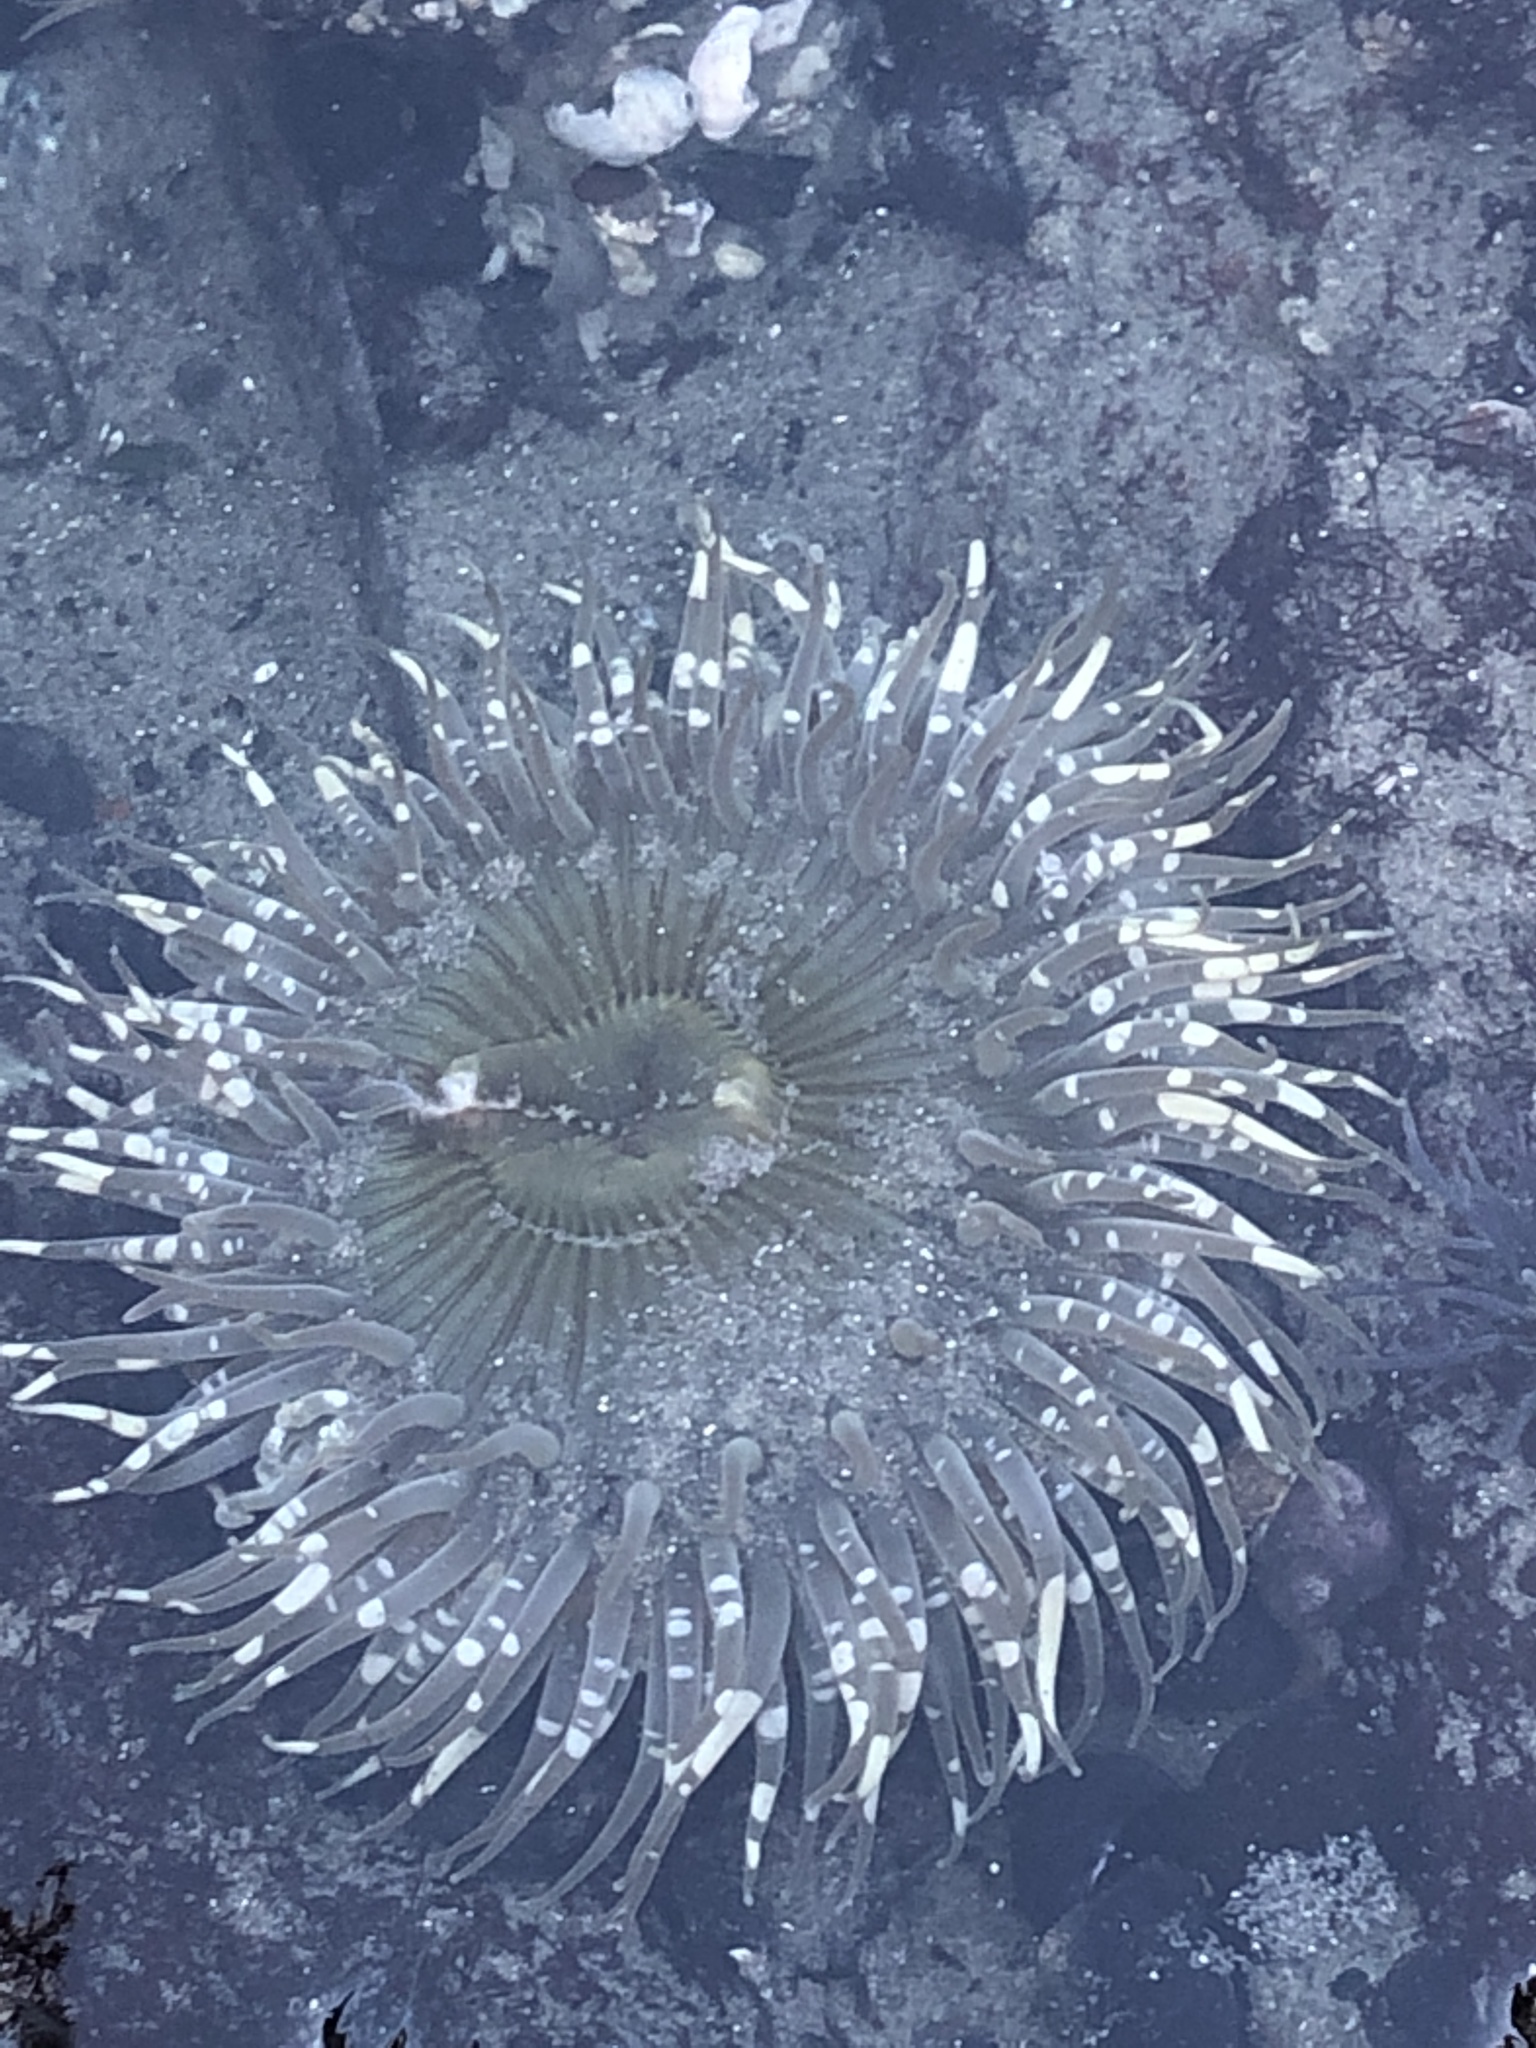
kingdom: Animalia
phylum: Cnidaria
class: Anthozoa
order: Actiniaria
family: Actiniidae
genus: Anthopleura
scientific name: Anthopleura sola
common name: Sun anemone
